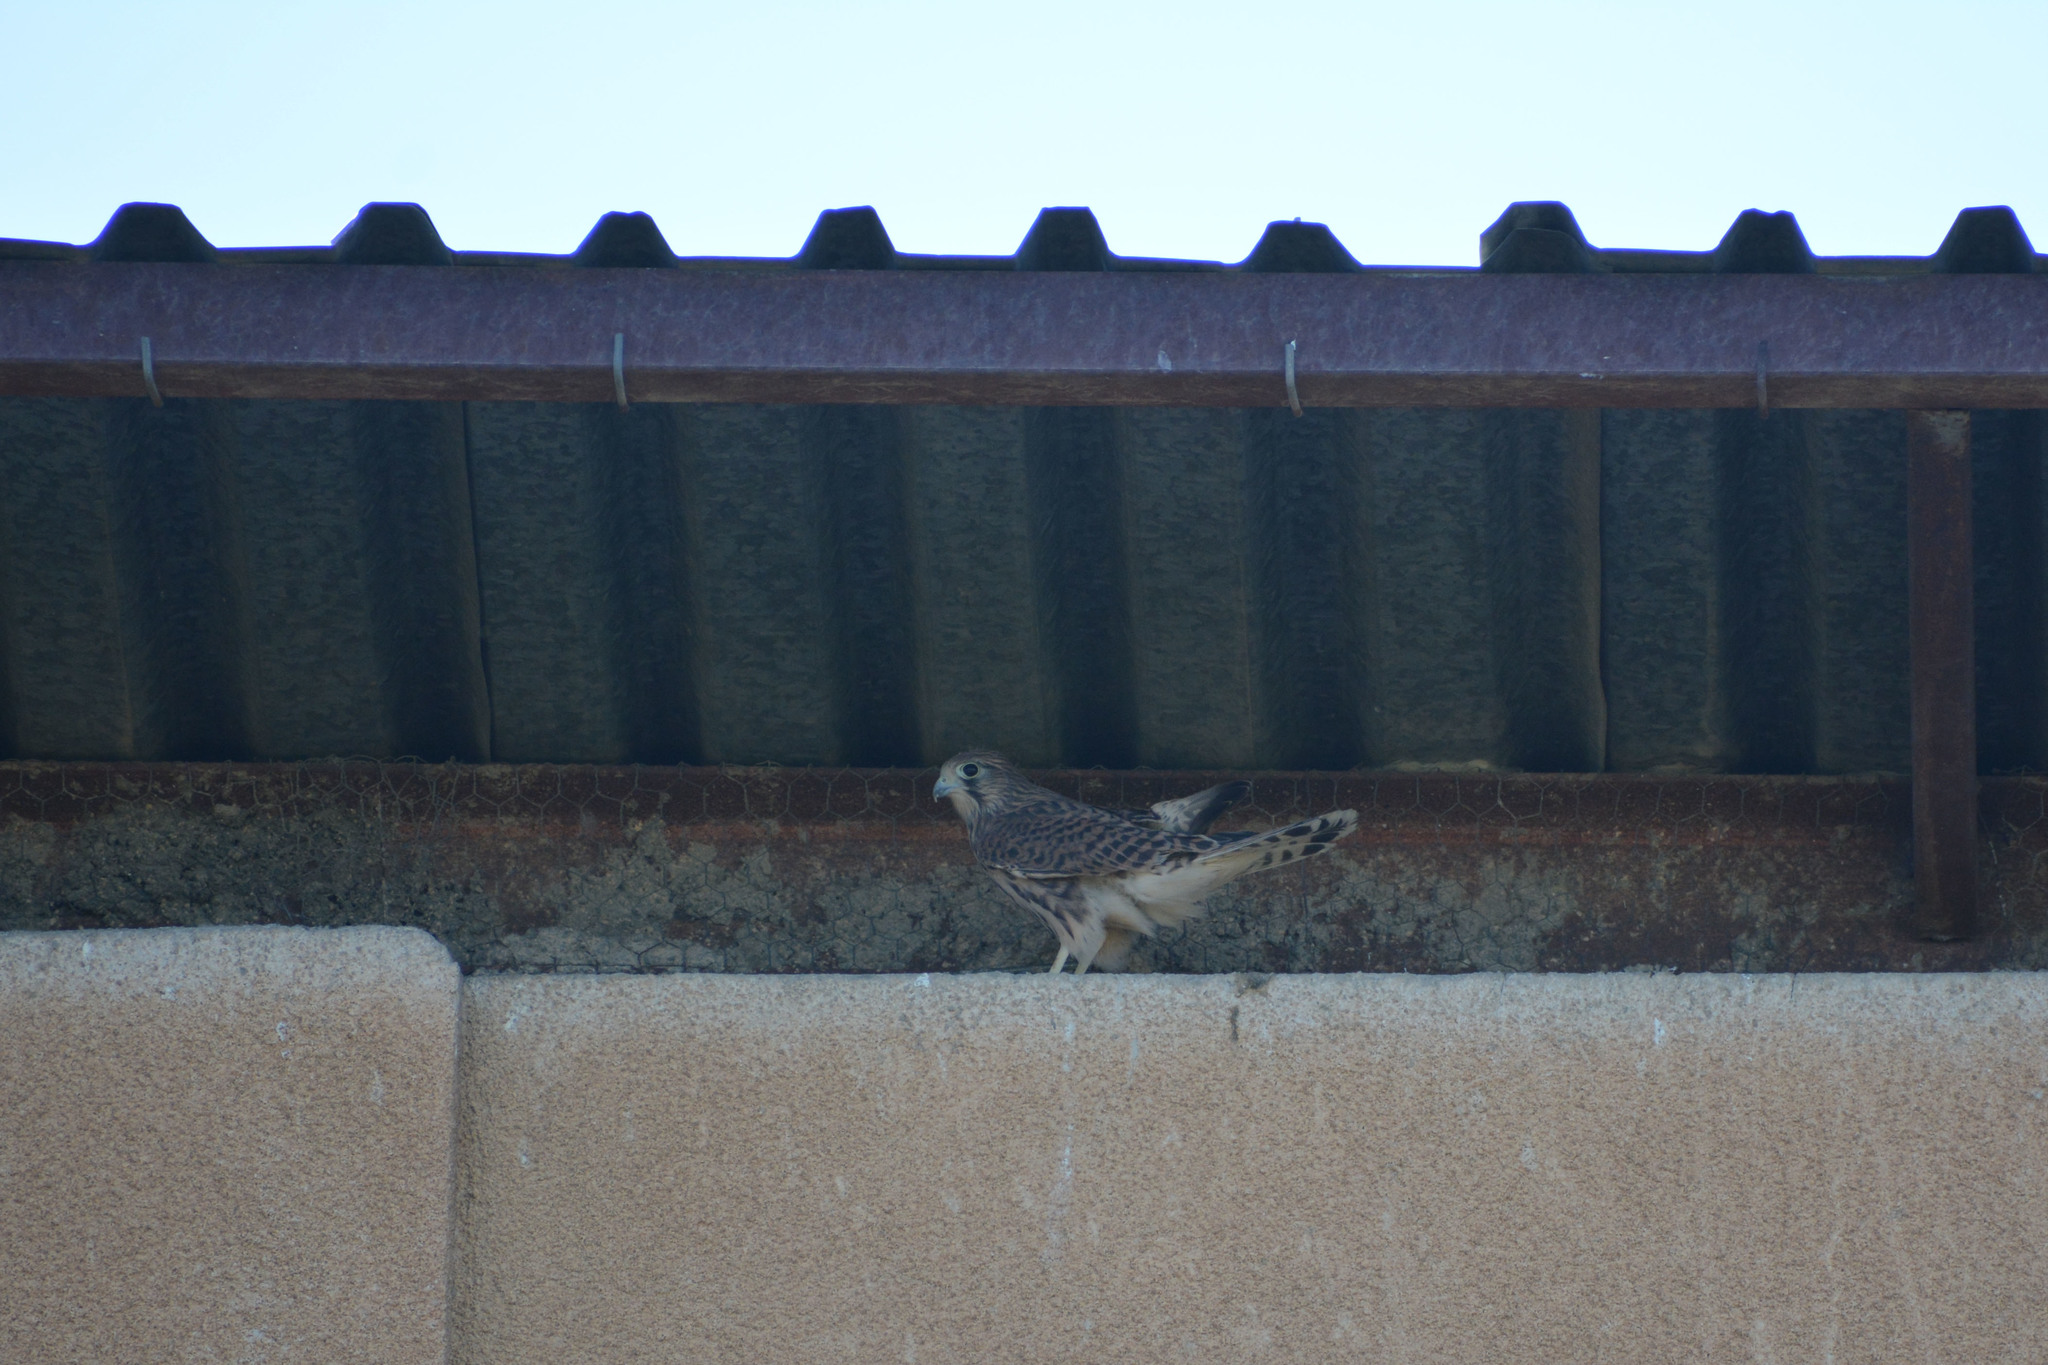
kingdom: Animalia
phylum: Chordata
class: Aves
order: Falconiformes
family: Falconidae
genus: Falco
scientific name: Falco tinnunculus
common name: Common kestrel
